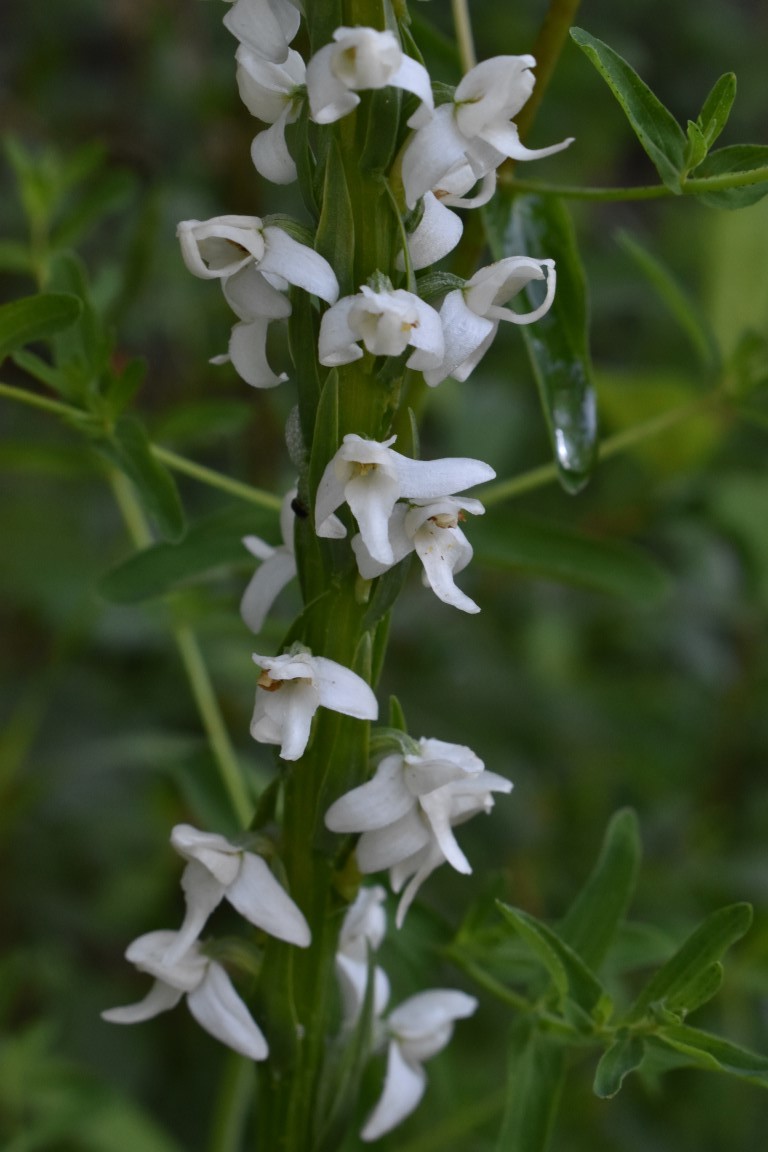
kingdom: Plantae
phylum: Tracheophyta
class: Liliopsida
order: Asparagales
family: Orchidaceae
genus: Platanthera
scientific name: Platanthera dilatata
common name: Bog candles
